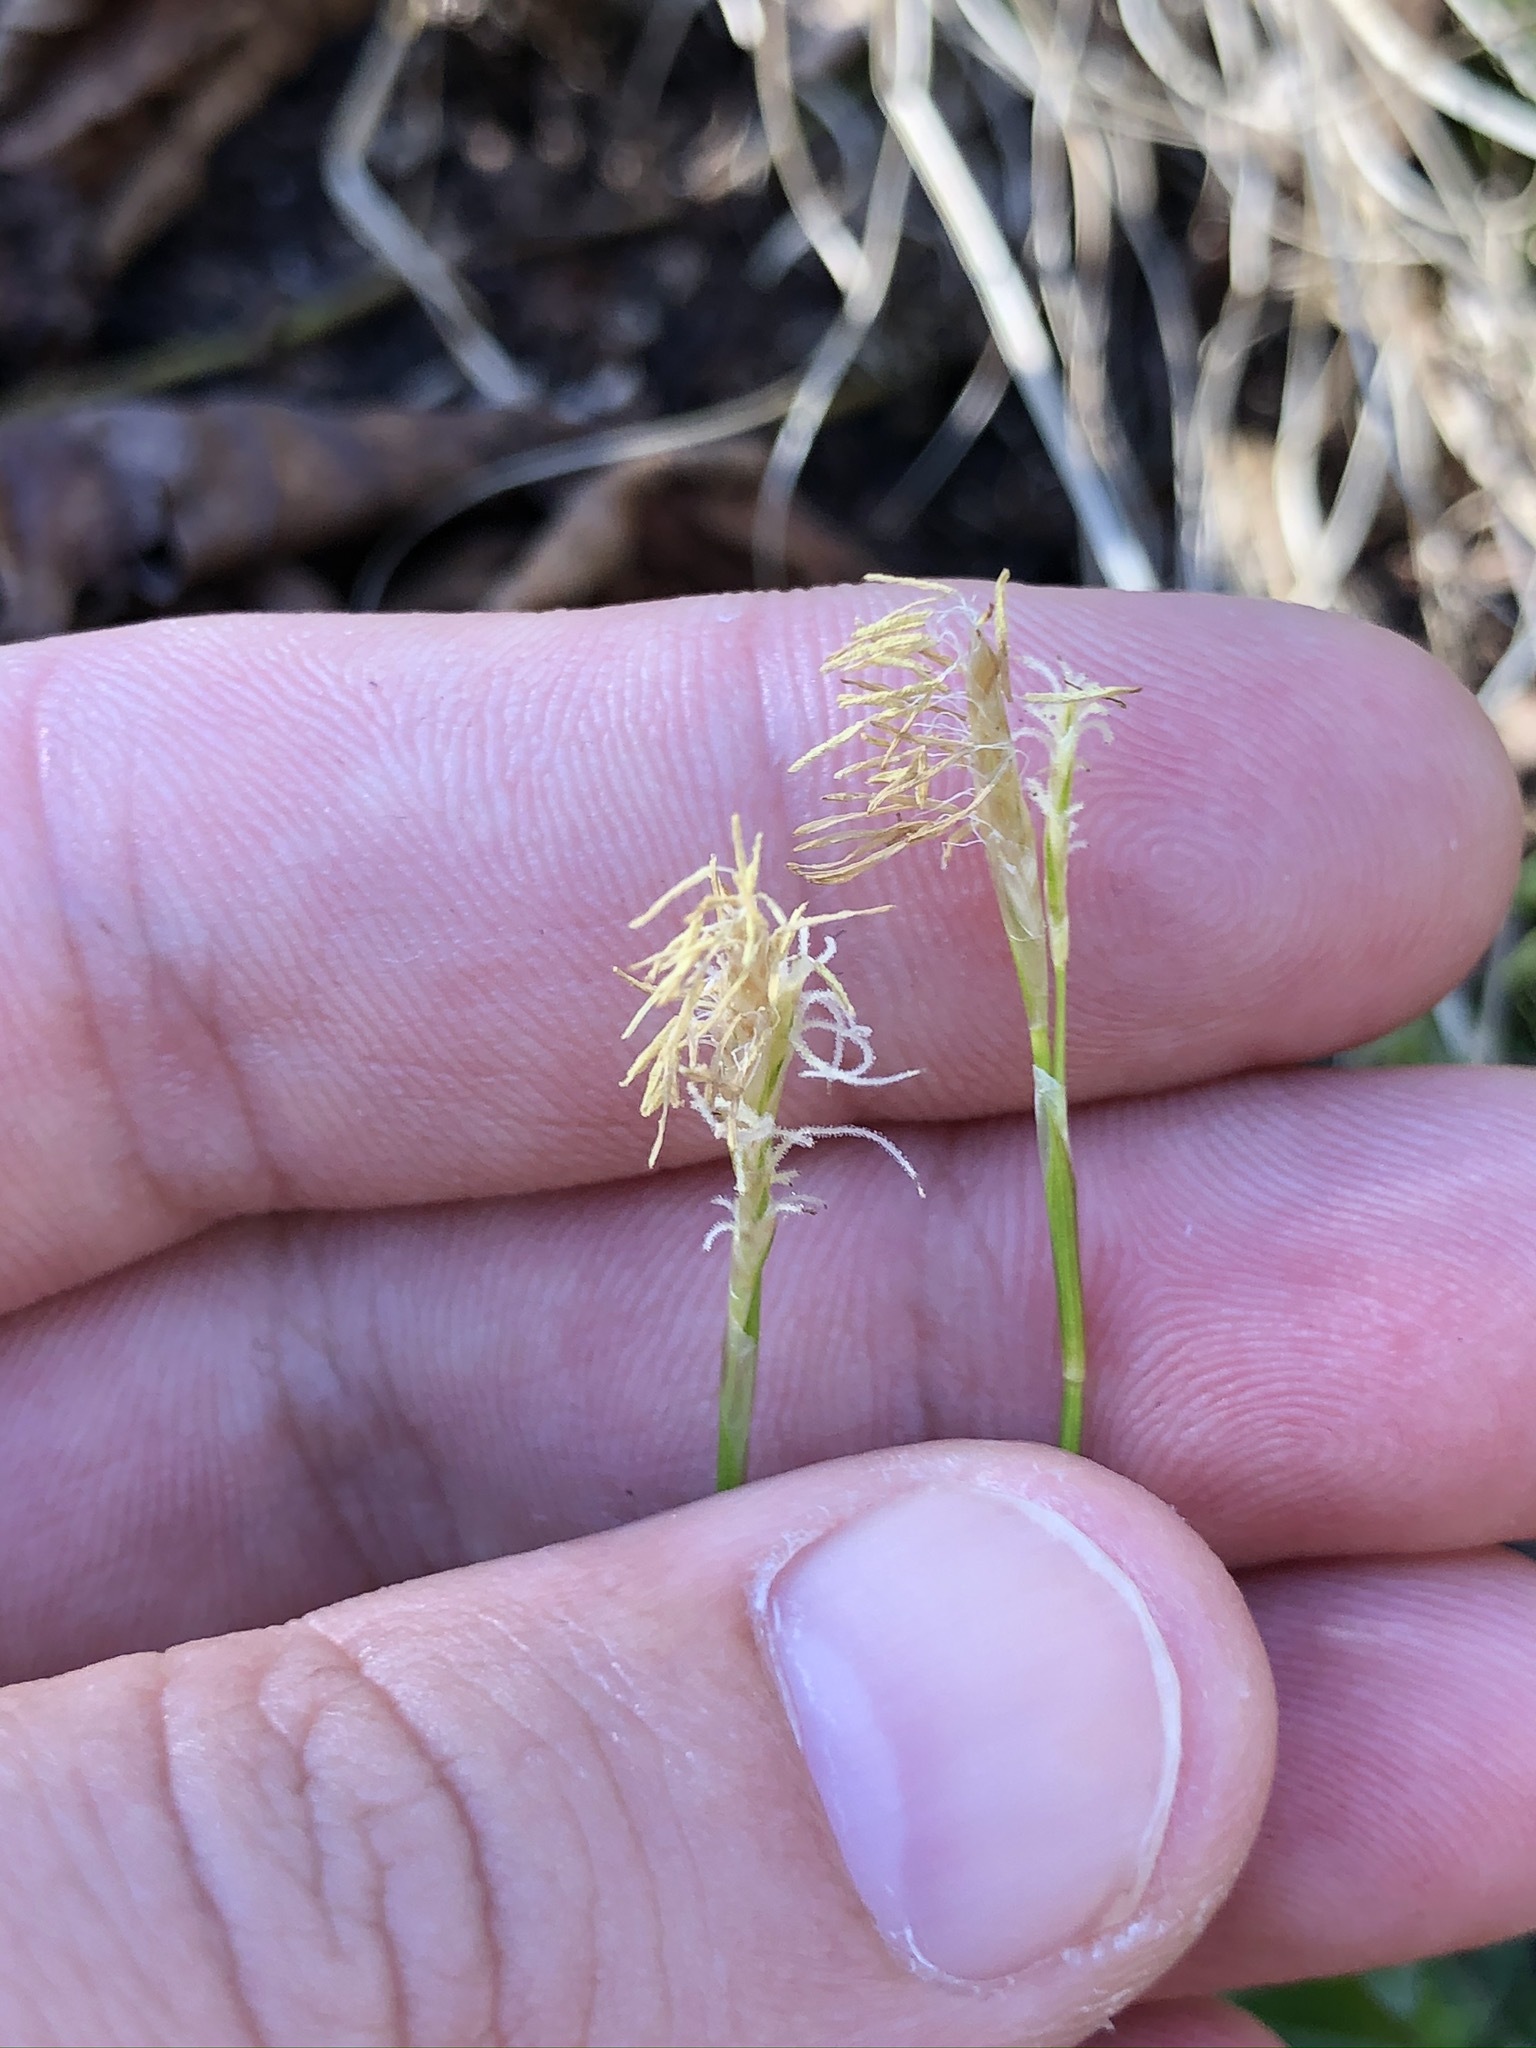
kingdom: Plantae
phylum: Tracheophyta
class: Liliopsida
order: Poales
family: Cyperaceae
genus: Carex
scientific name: Carex alba
